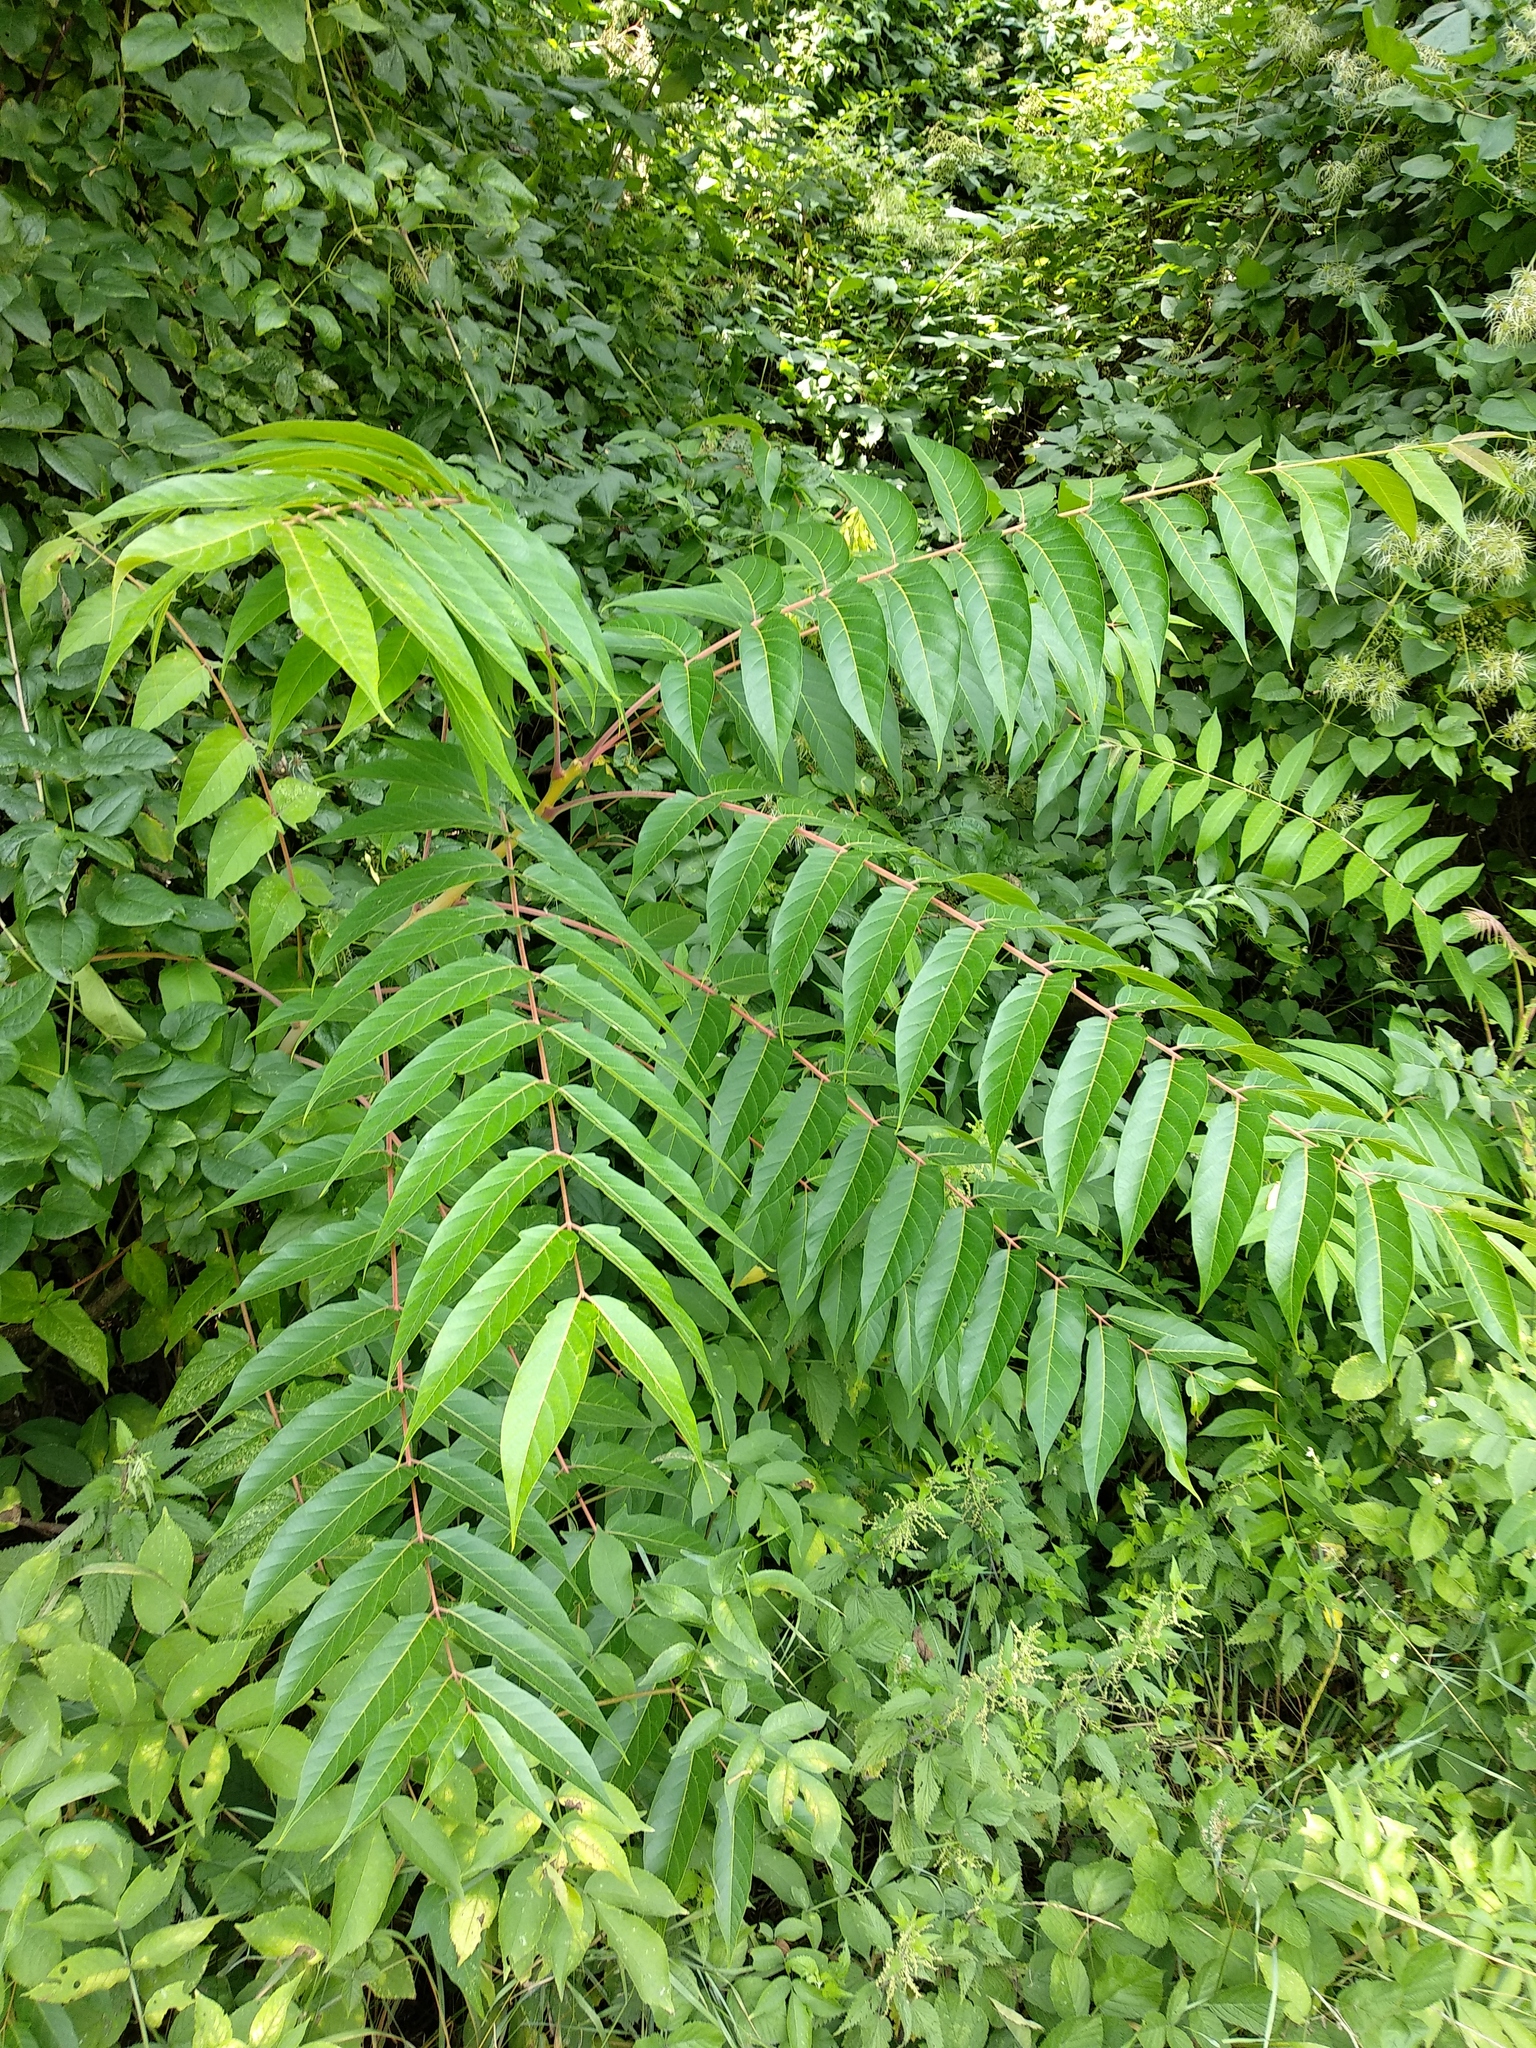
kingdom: Plantae
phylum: Tracheophyta
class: Magnoliopsida
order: Sapindales
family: Simaroubaceae
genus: Ailanthus
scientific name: Ailanthus altissima
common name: Tree-of-heaven
